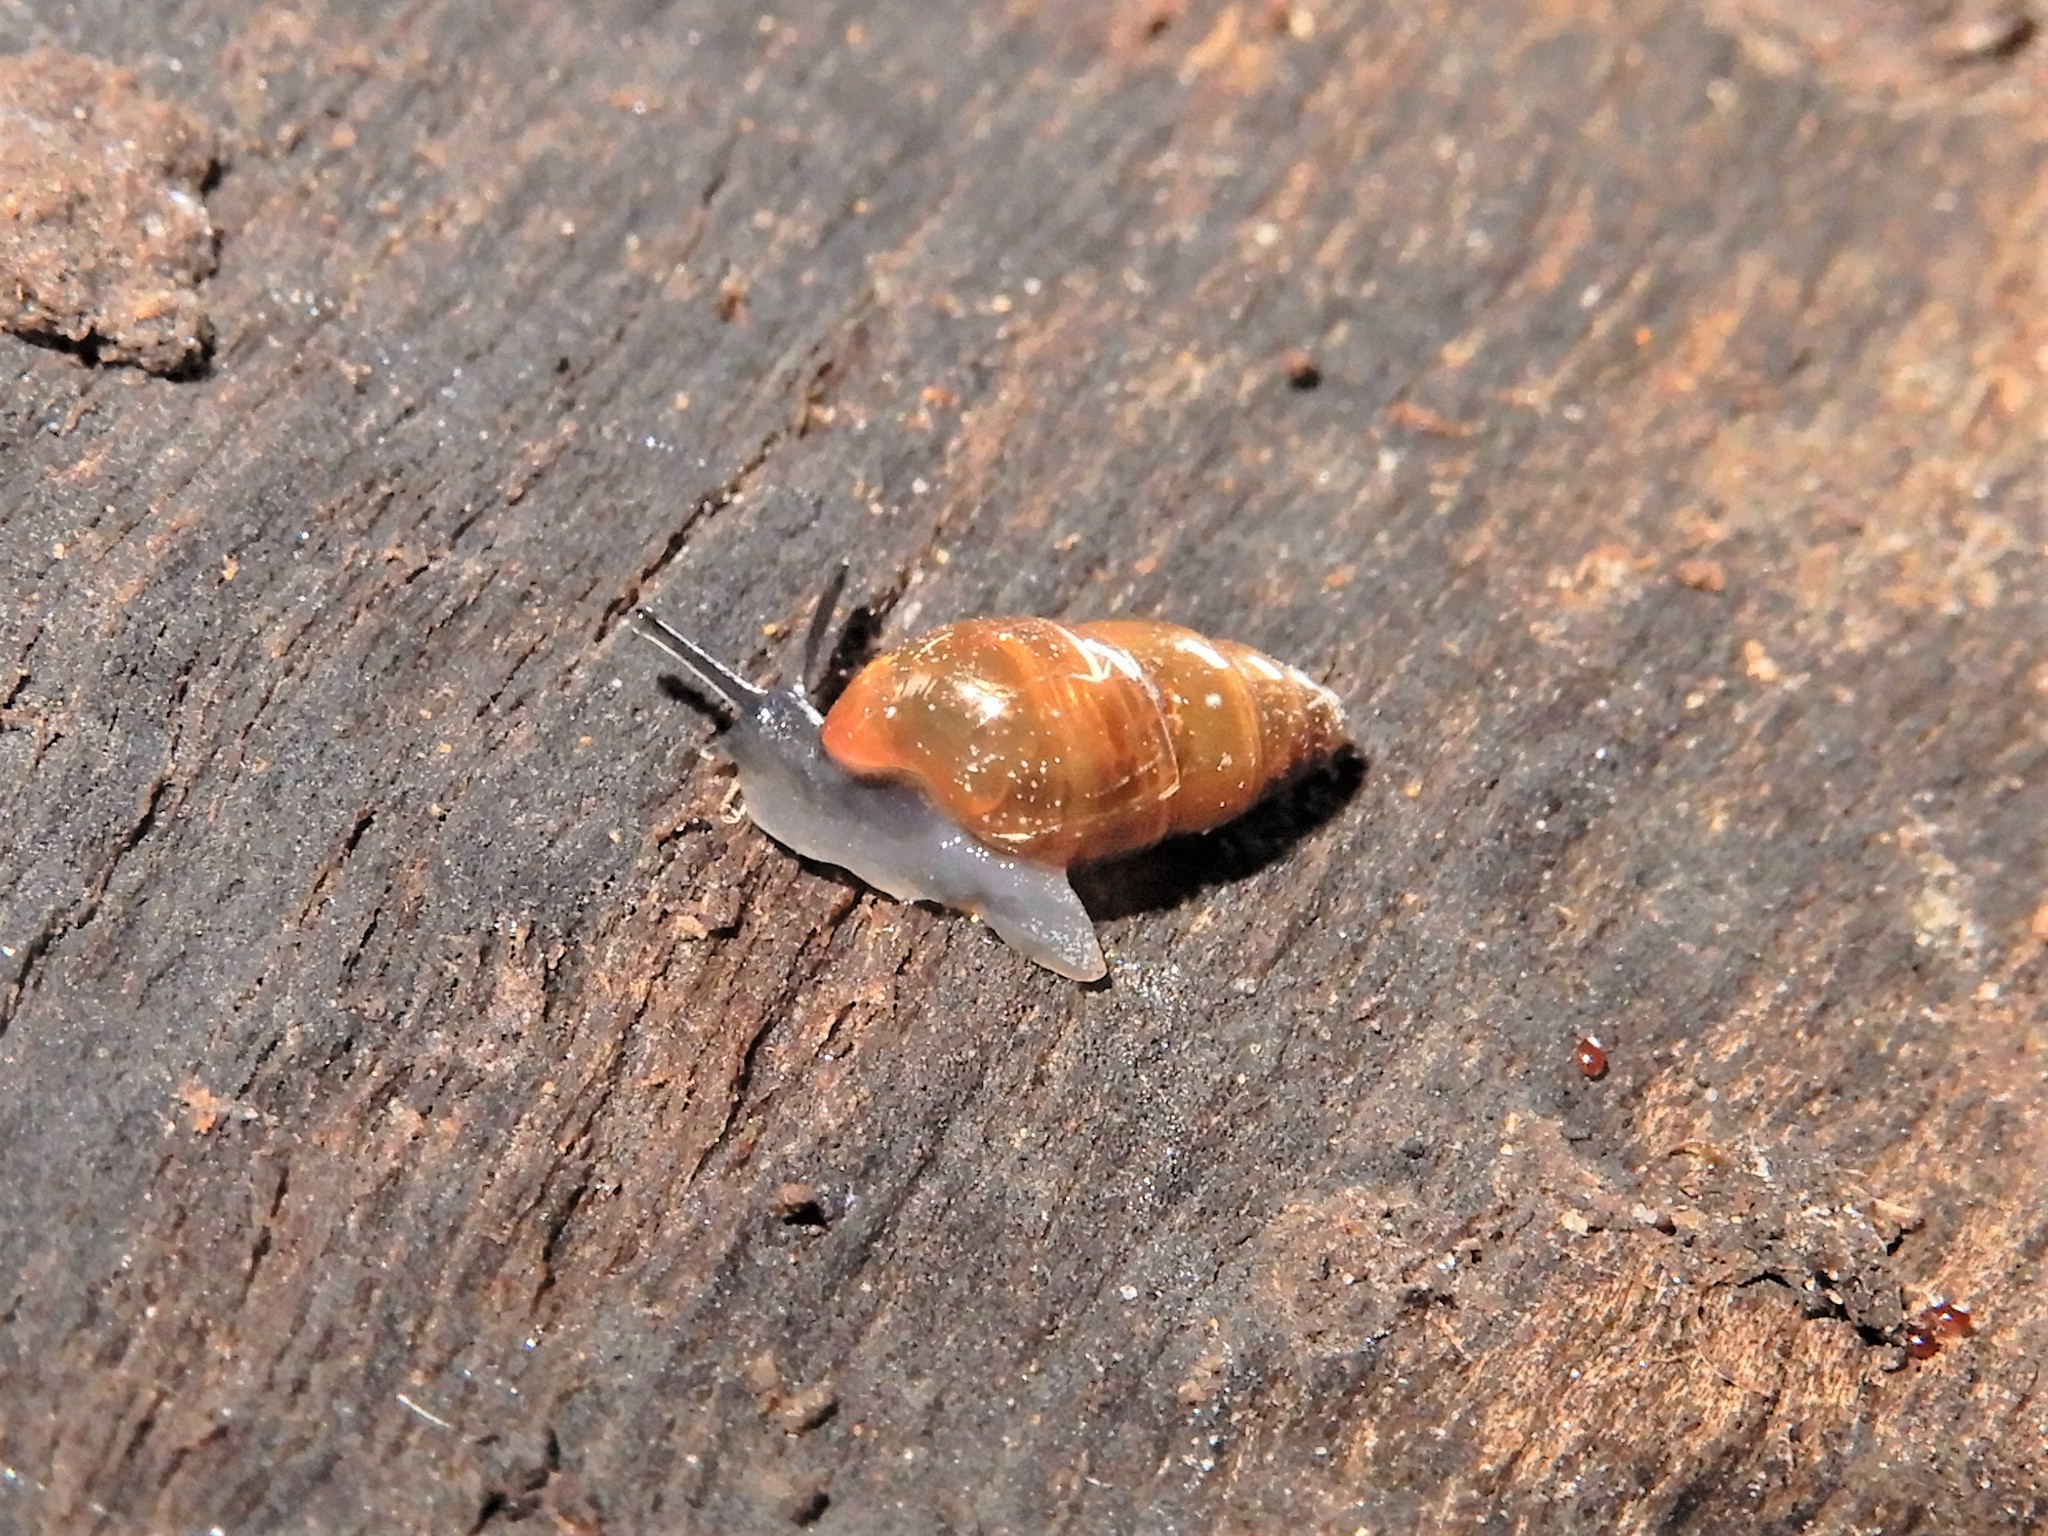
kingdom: Animalia
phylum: Mollusca
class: Gastropoda
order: Stylommatophora
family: Cochlicopidae
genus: Cochlicopa
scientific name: Cochlicopa lubrica
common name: Glossy pillar snail
